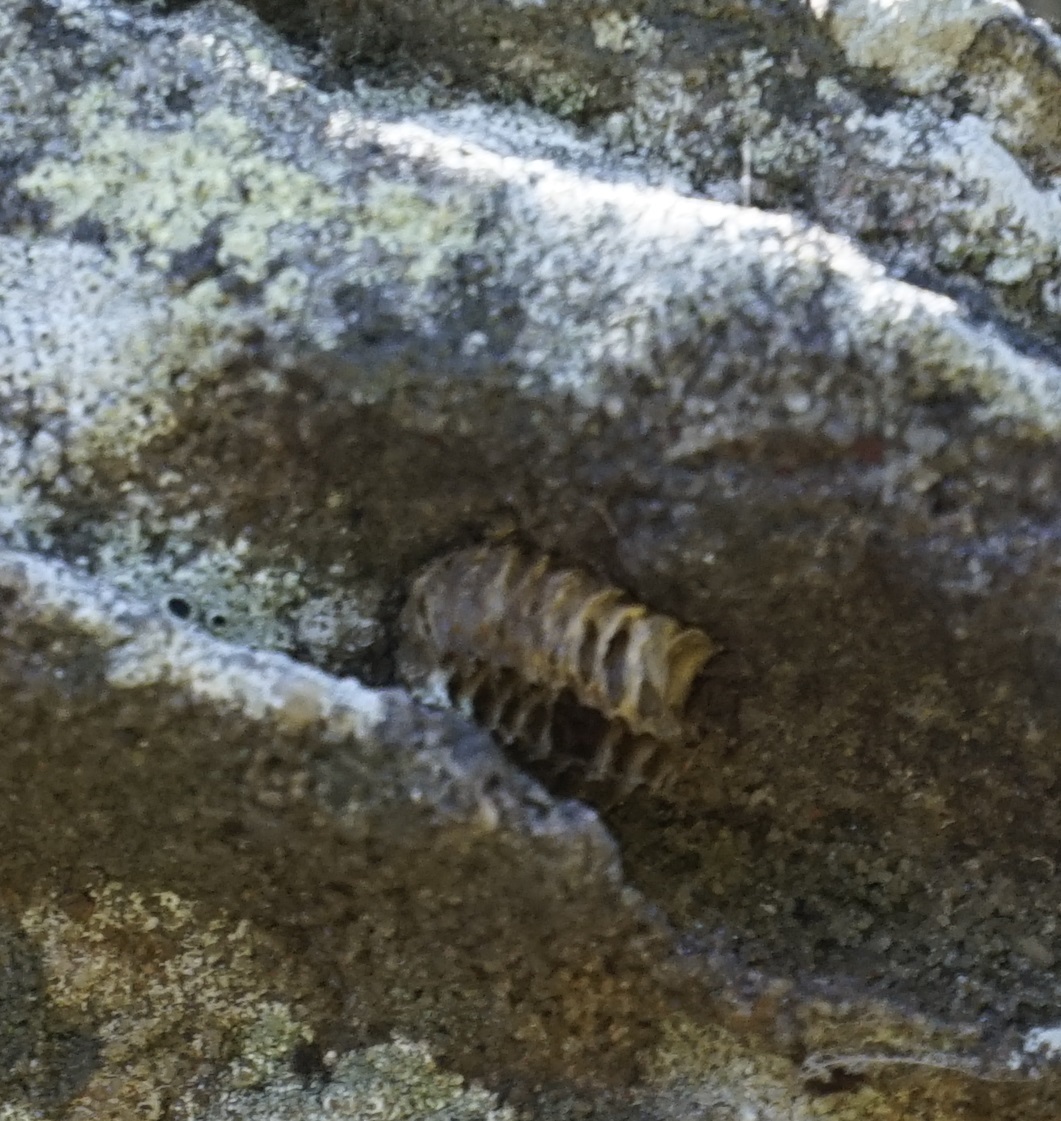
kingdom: Animalia
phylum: Arthropoda
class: Insecta
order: Mantodea
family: Mantidae
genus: Pseudomantis
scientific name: Pseudomantis albofimbriata
